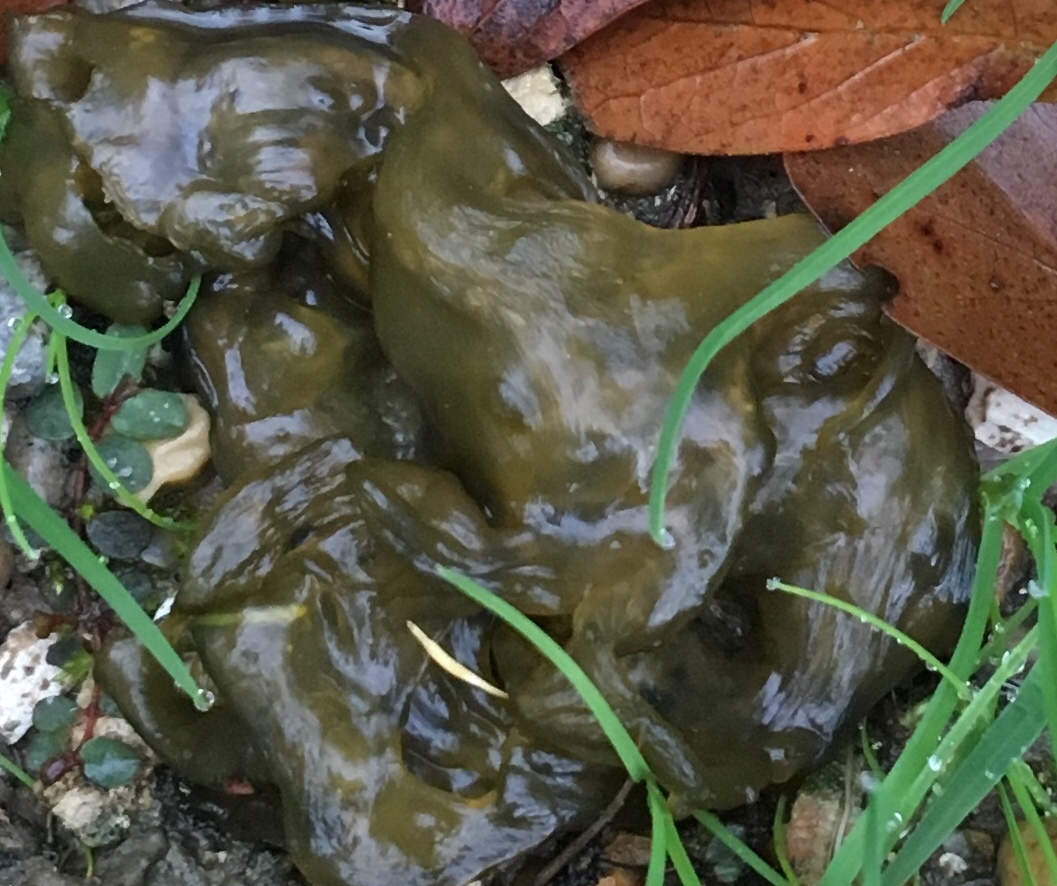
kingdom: Bacteria
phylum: Cyanobacteria
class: Cyanobacteriia
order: Cyanobacteriales
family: Nostocaceae
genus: Nostoc
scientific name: Nostoc commune
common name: Star jelly
